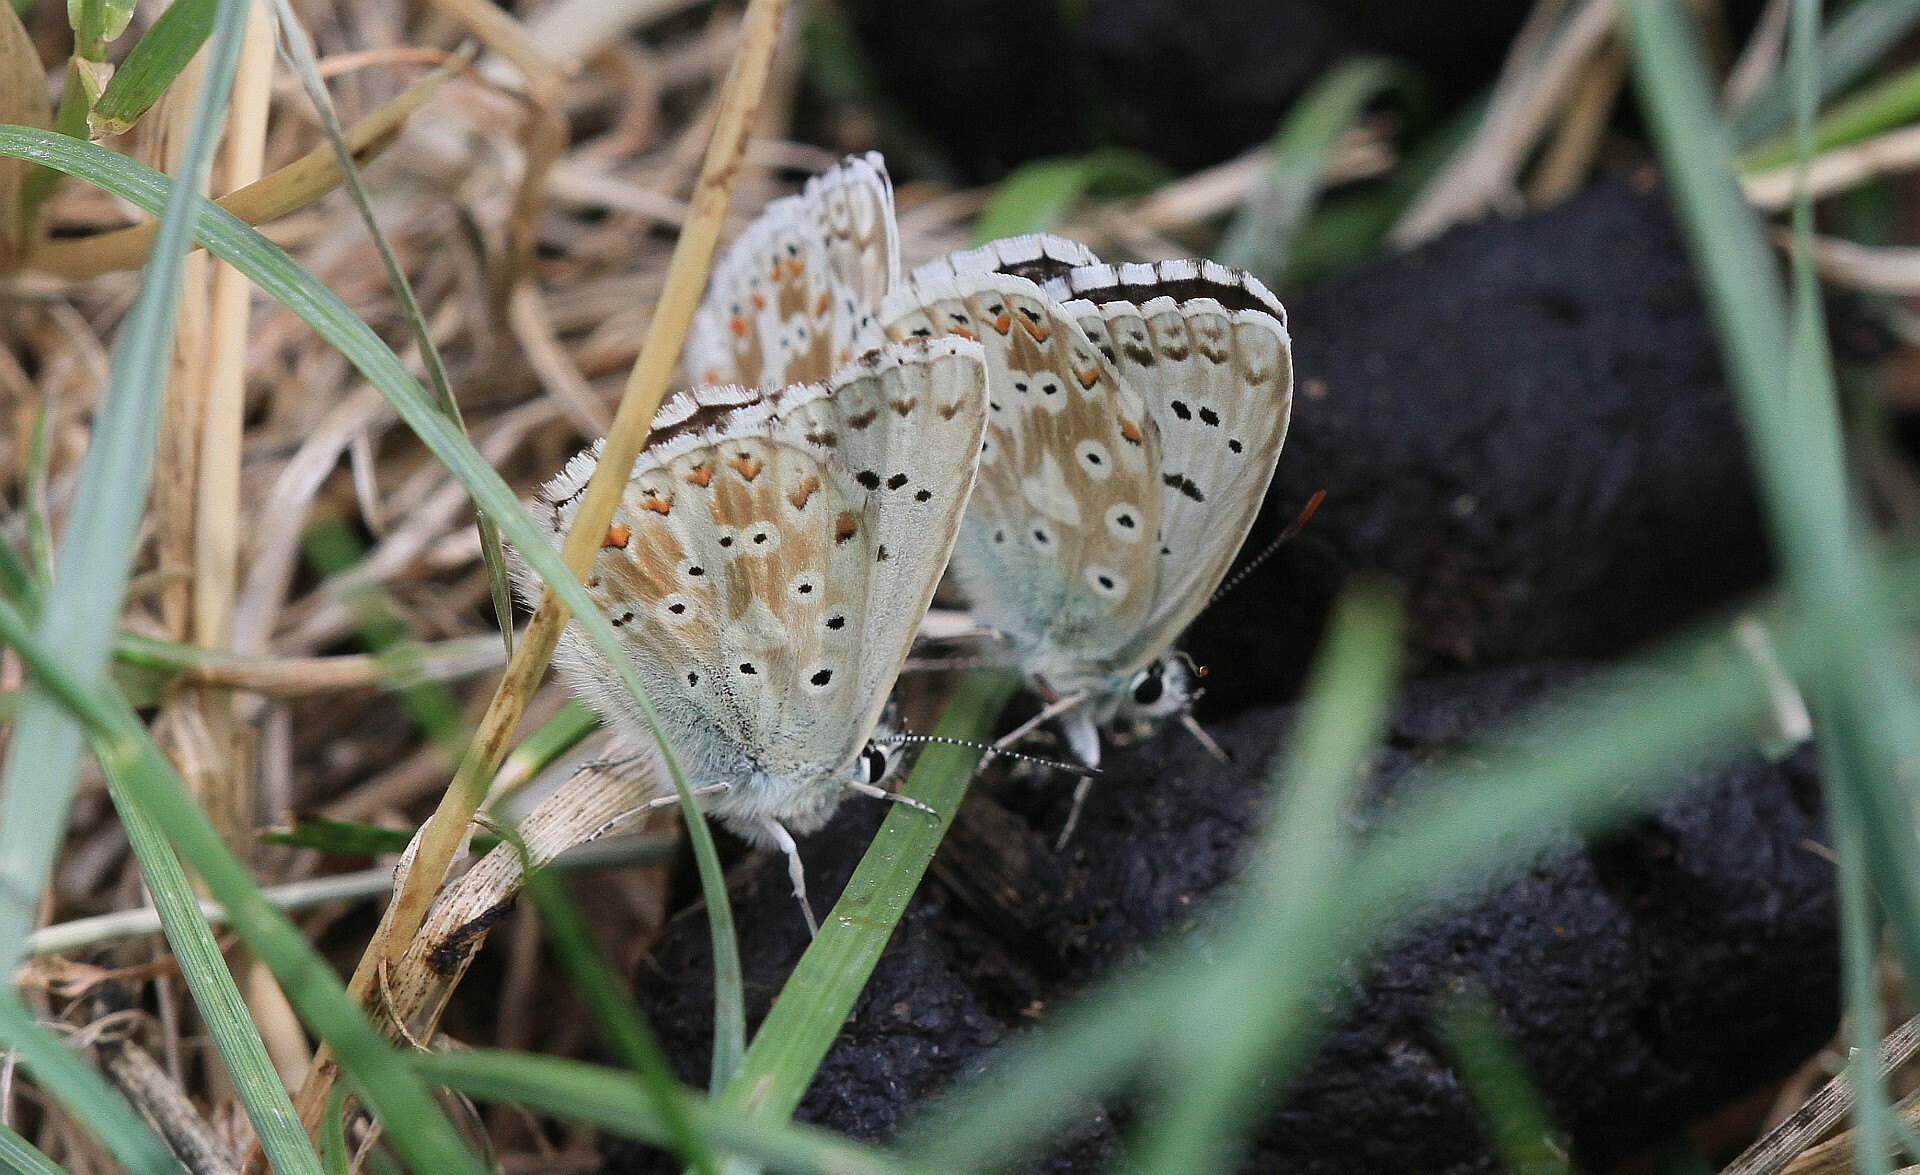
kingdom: Animalia
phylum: Arthropoda
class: Insecta
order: Lepidoptera
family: Lycaenidae
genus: Lysandra
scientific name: Lysandra coridon
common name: Chalkhill blue
